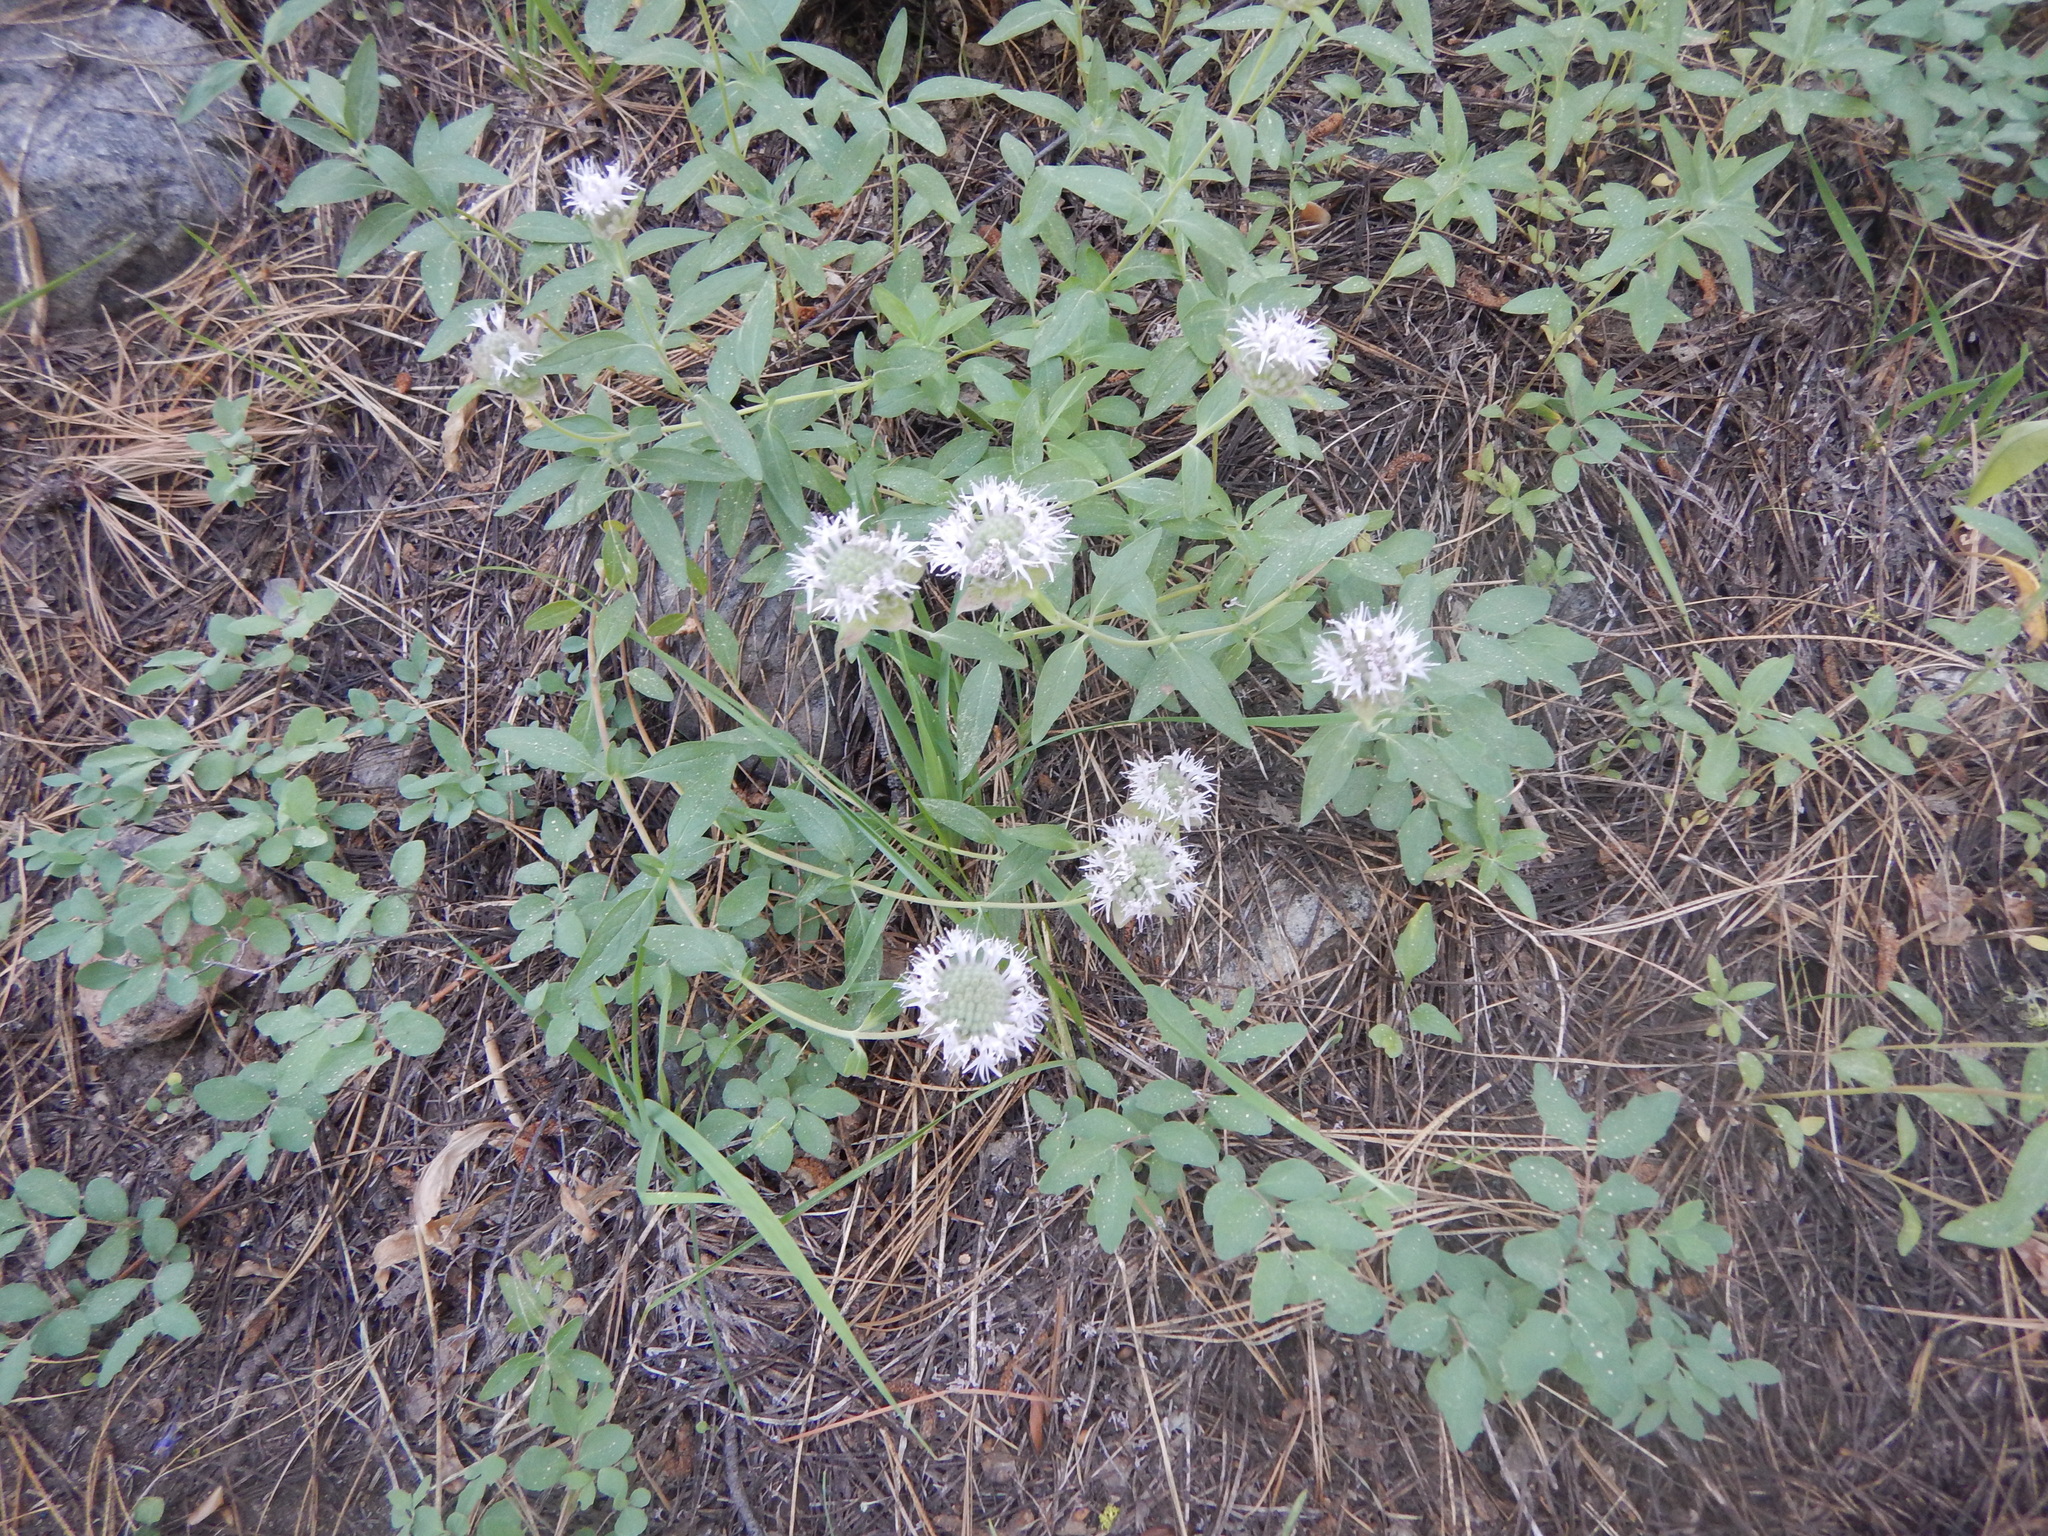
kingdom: Plantae
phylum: Tracheophyta
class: Magnoliopsida
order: Lamiales
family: Lamiaceae
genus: Monardella
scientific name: Monardella odoratissima
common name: Pacific monardella
